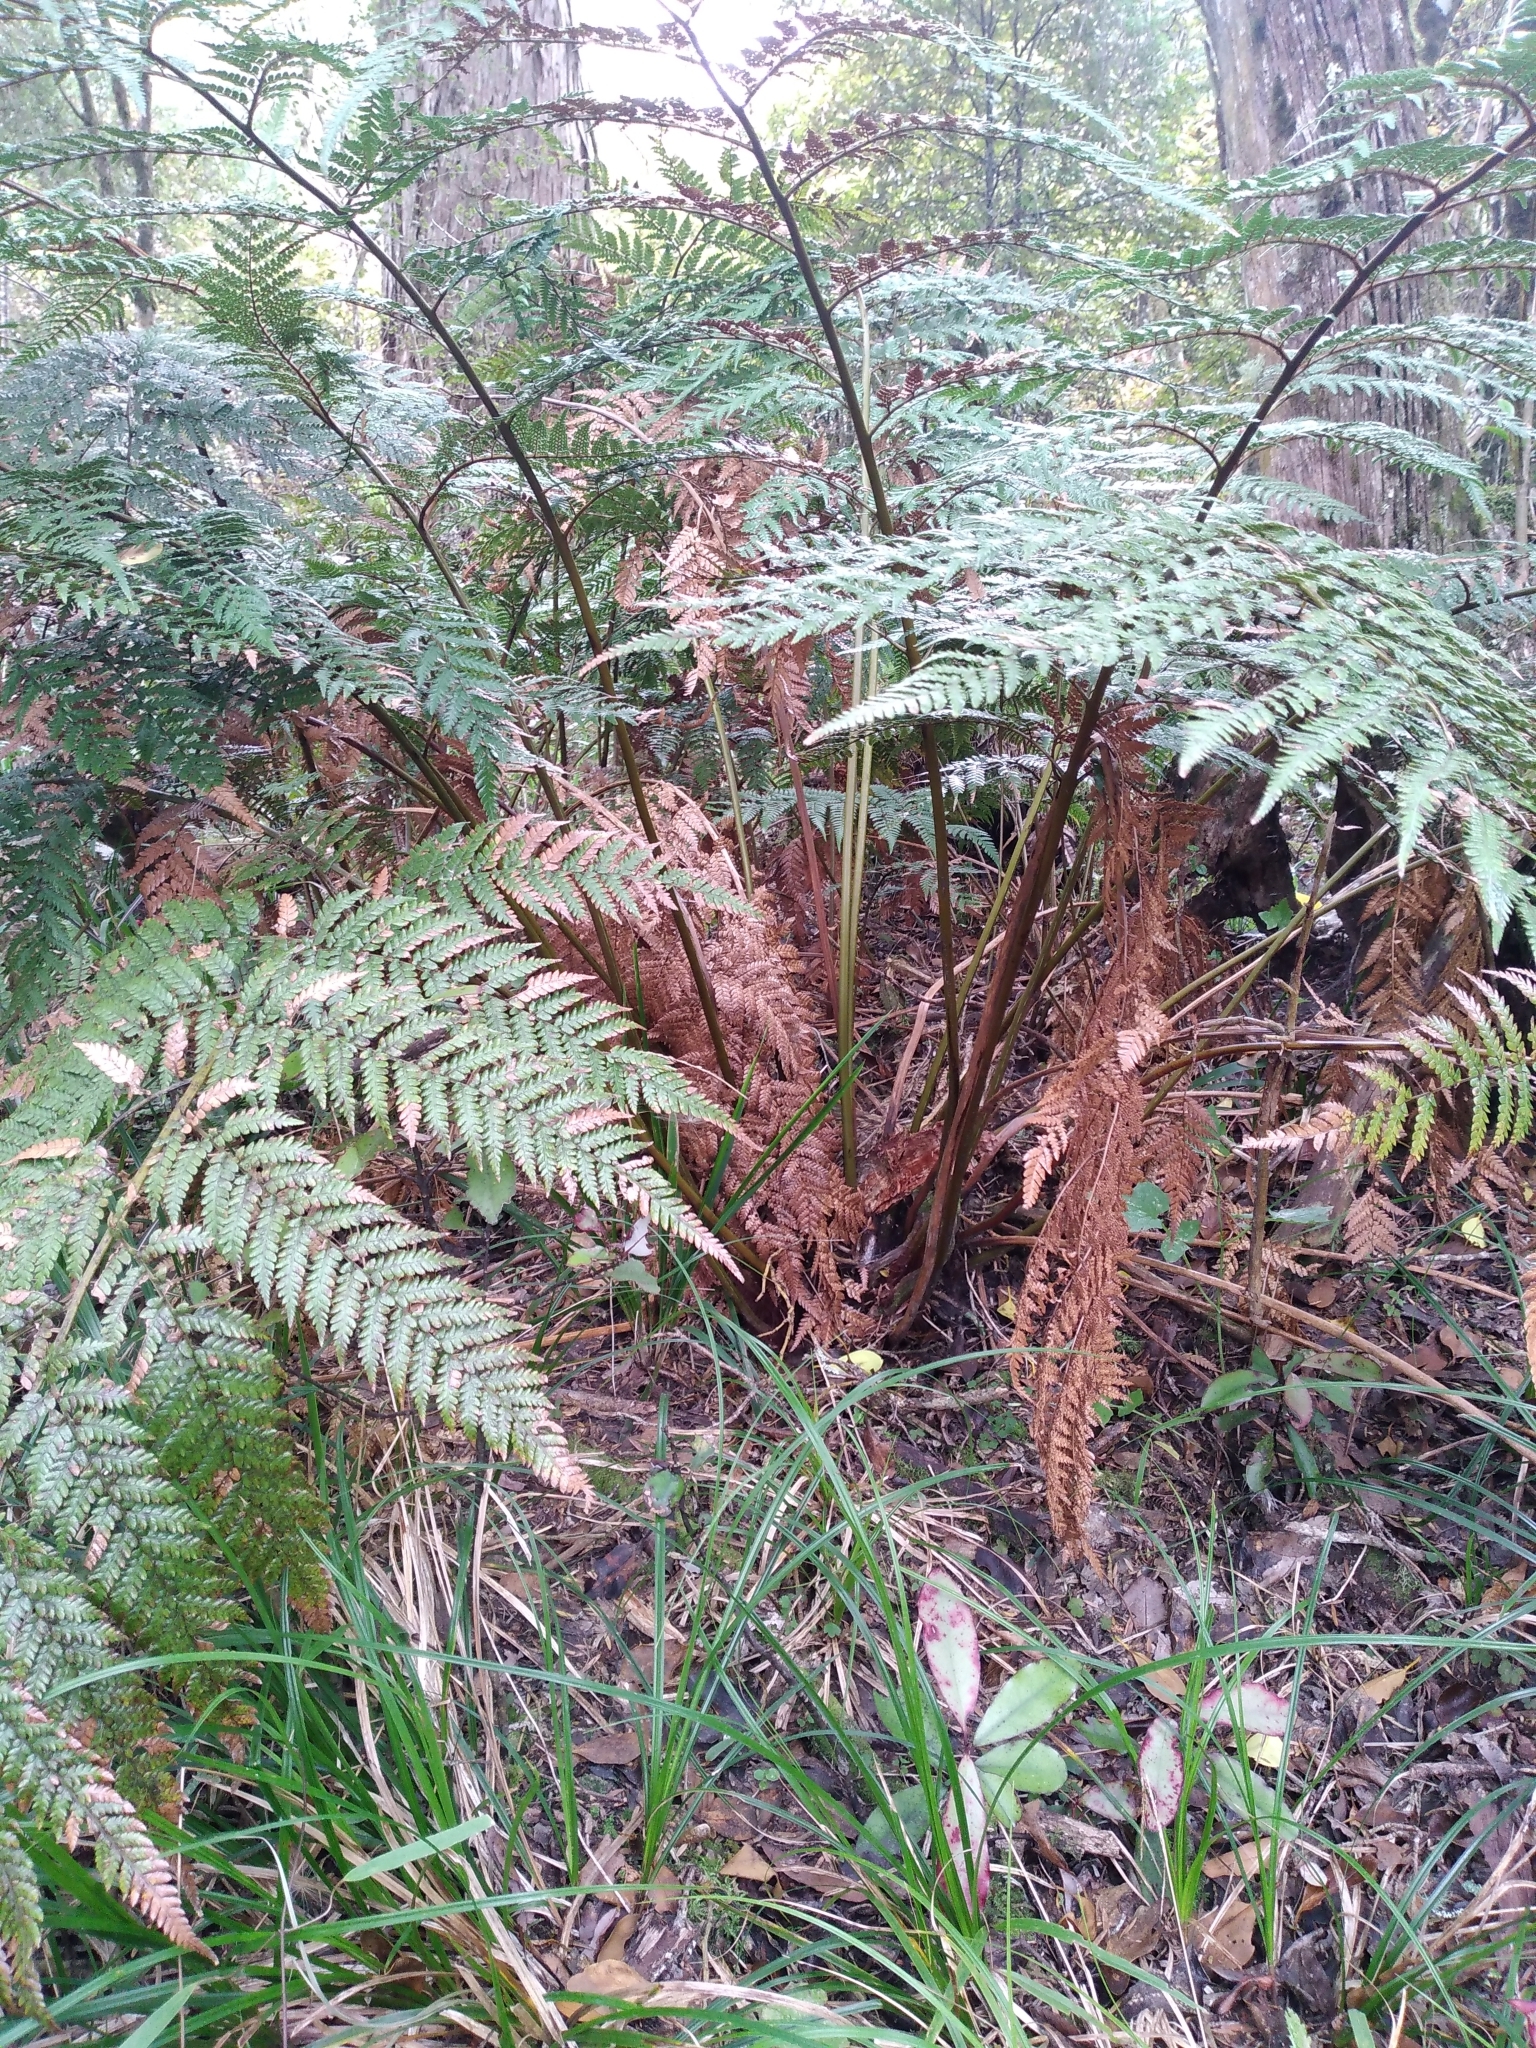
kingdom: Plantae
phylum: Tracheophyta
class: Polypodiopsida
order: Cyatheales
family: Dicksoniaceae
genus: Dicksonia
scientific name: Dicksonia lanata
